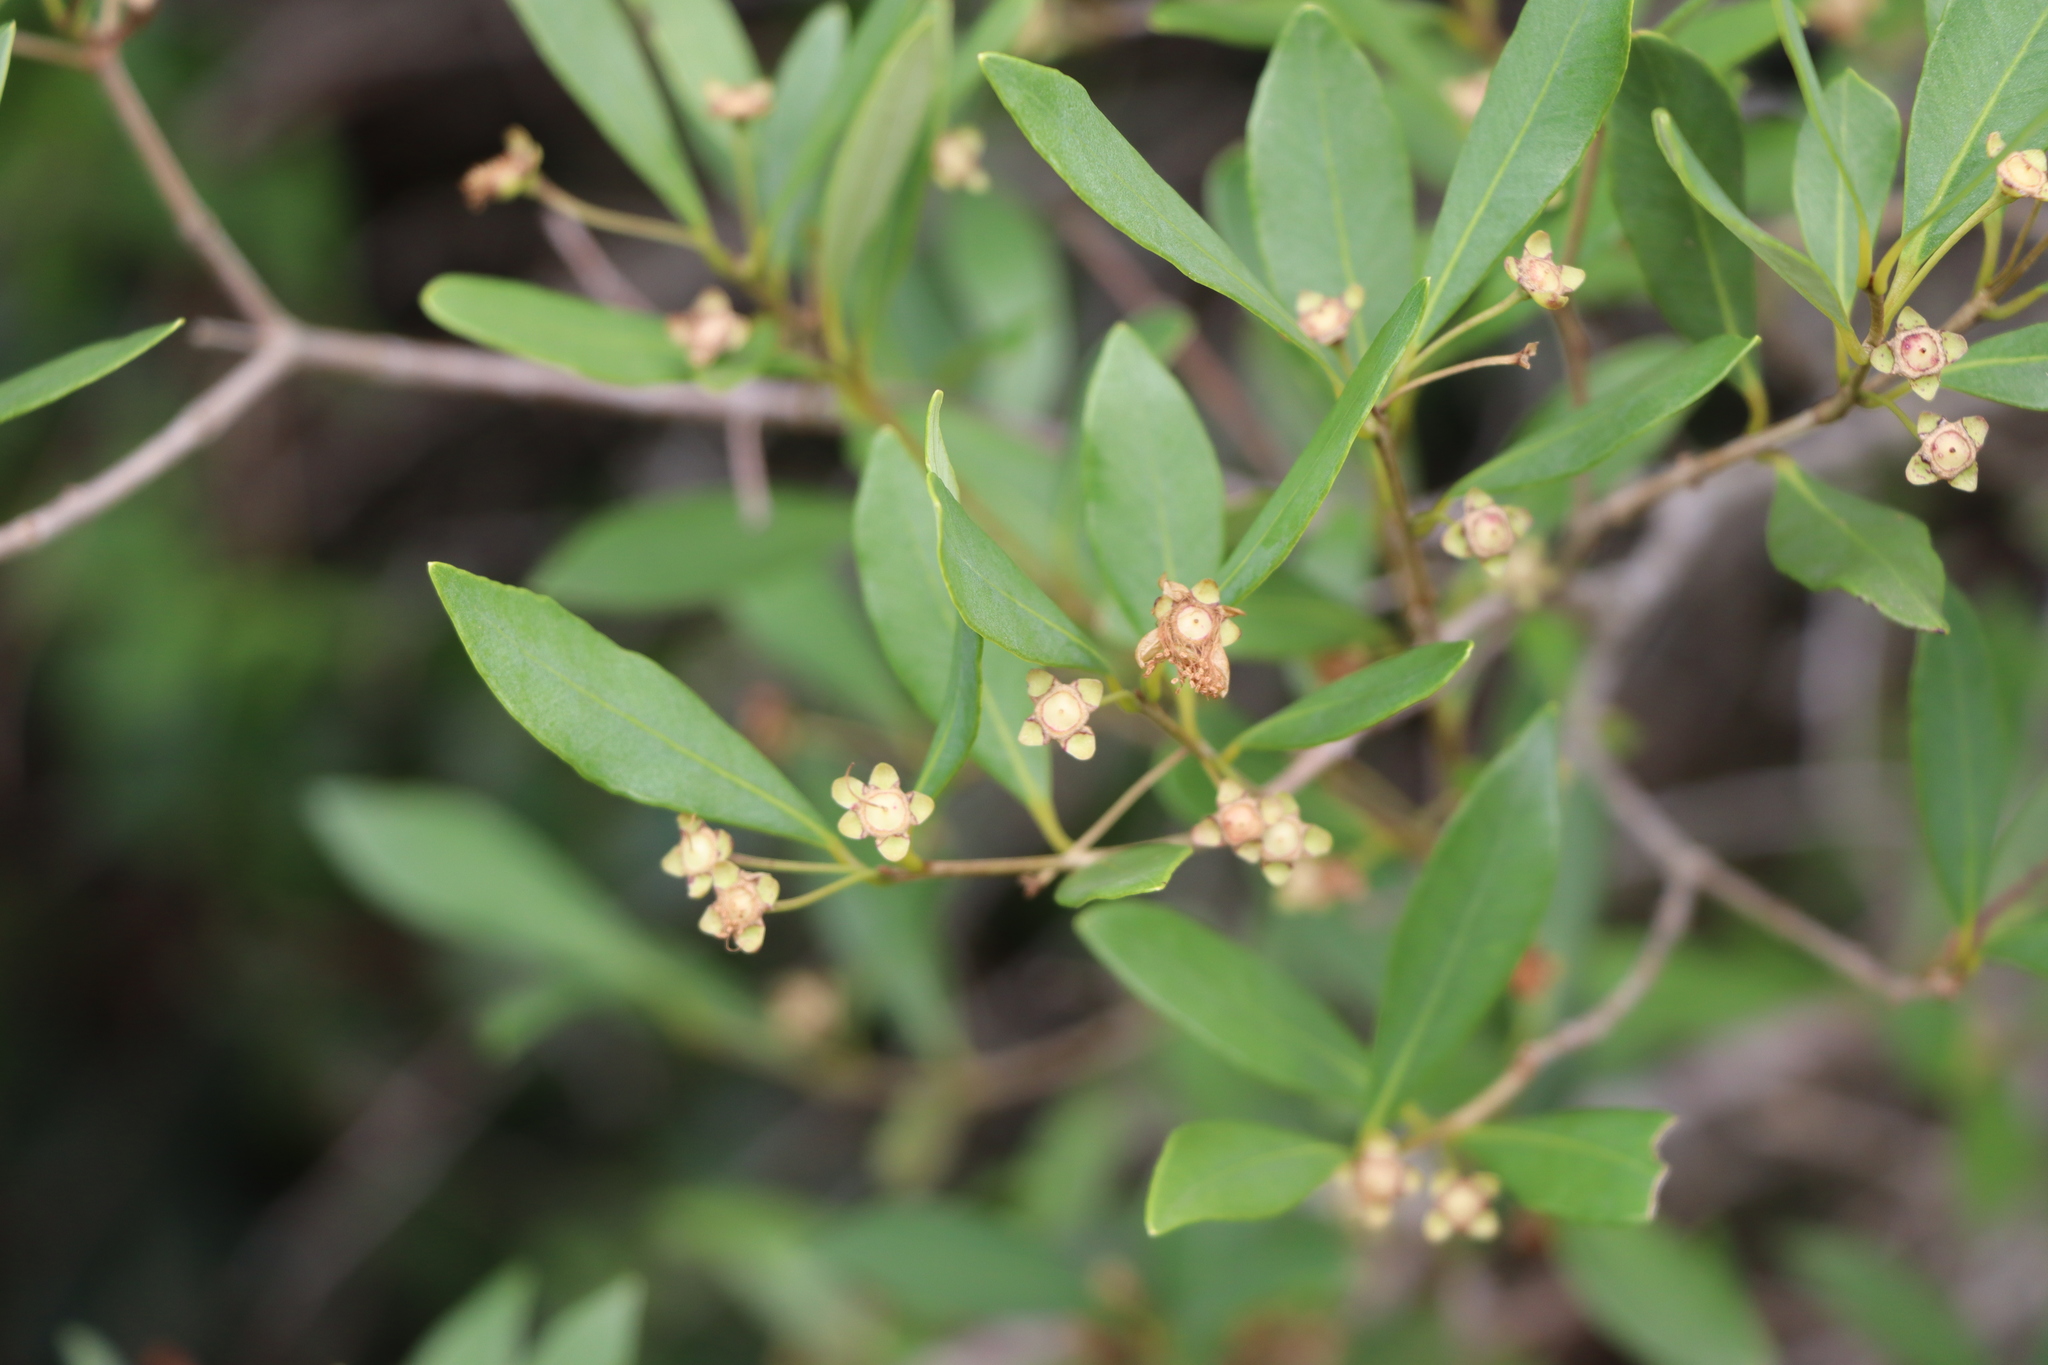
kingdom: Plantae
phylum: Tracheophyta
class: Magnoliopsida
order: Myrtales
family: Myrtaceae
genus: Myrceugenia
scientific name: Myrceugenia glaucescens
